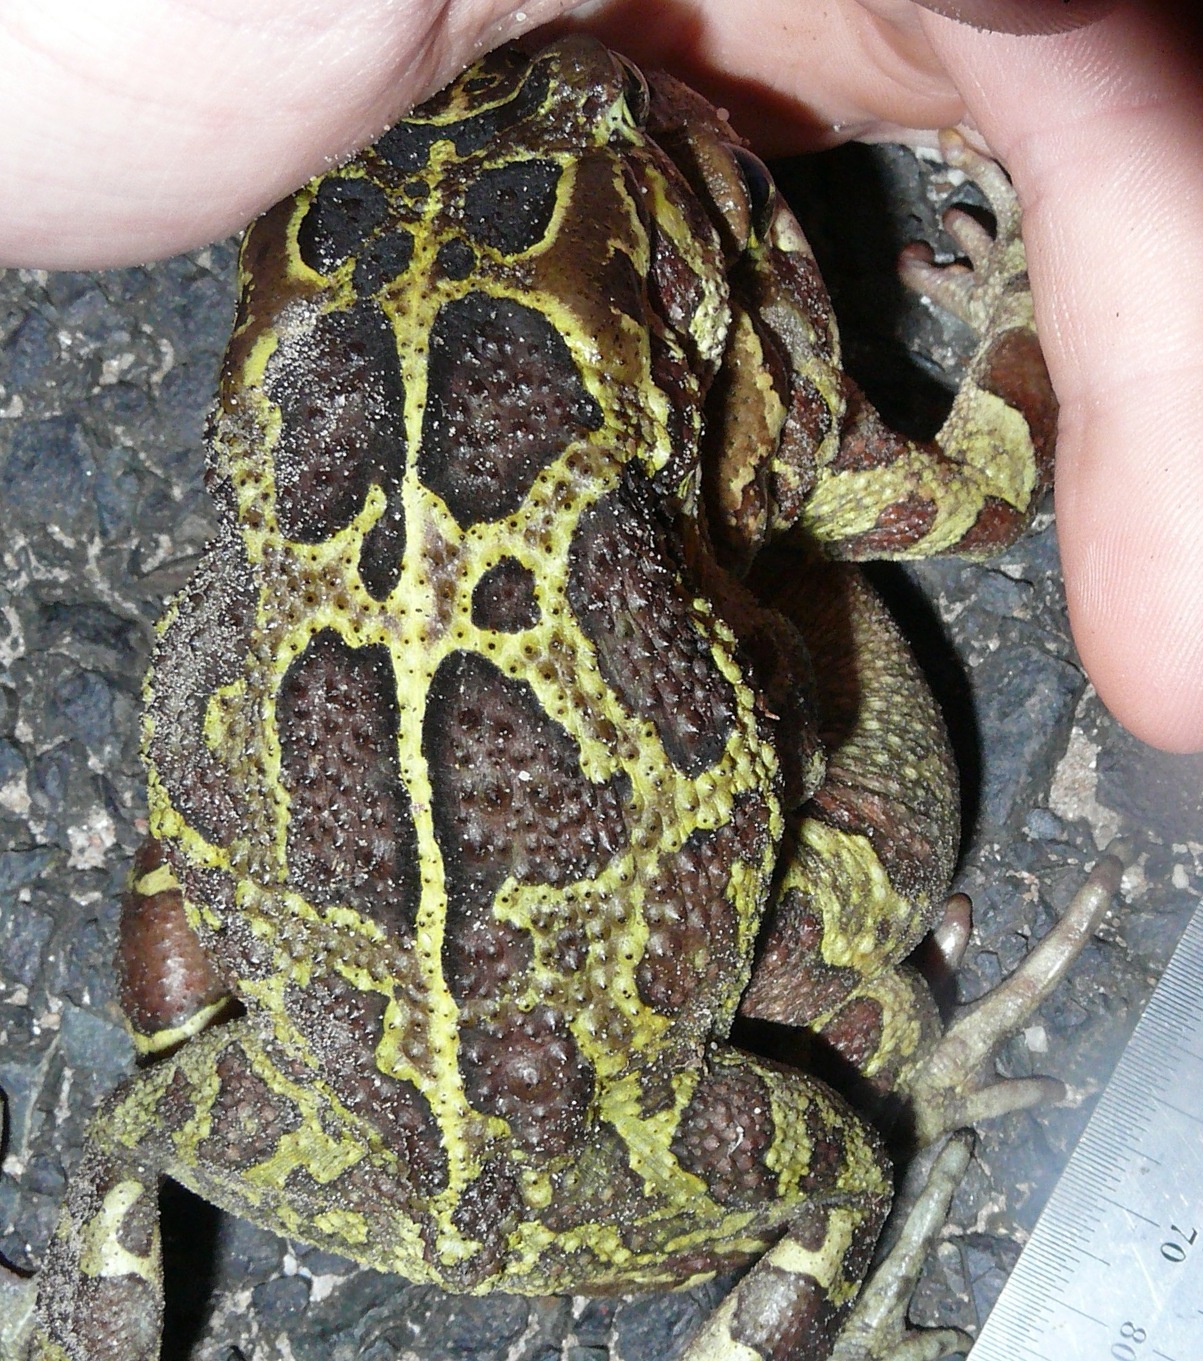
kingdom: Animalia
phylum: Chordata
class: Amphibia
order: Anura
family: Bufonidae
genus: Sclerophrys
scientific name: Sclerophrys pantherina
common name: Panther toad
